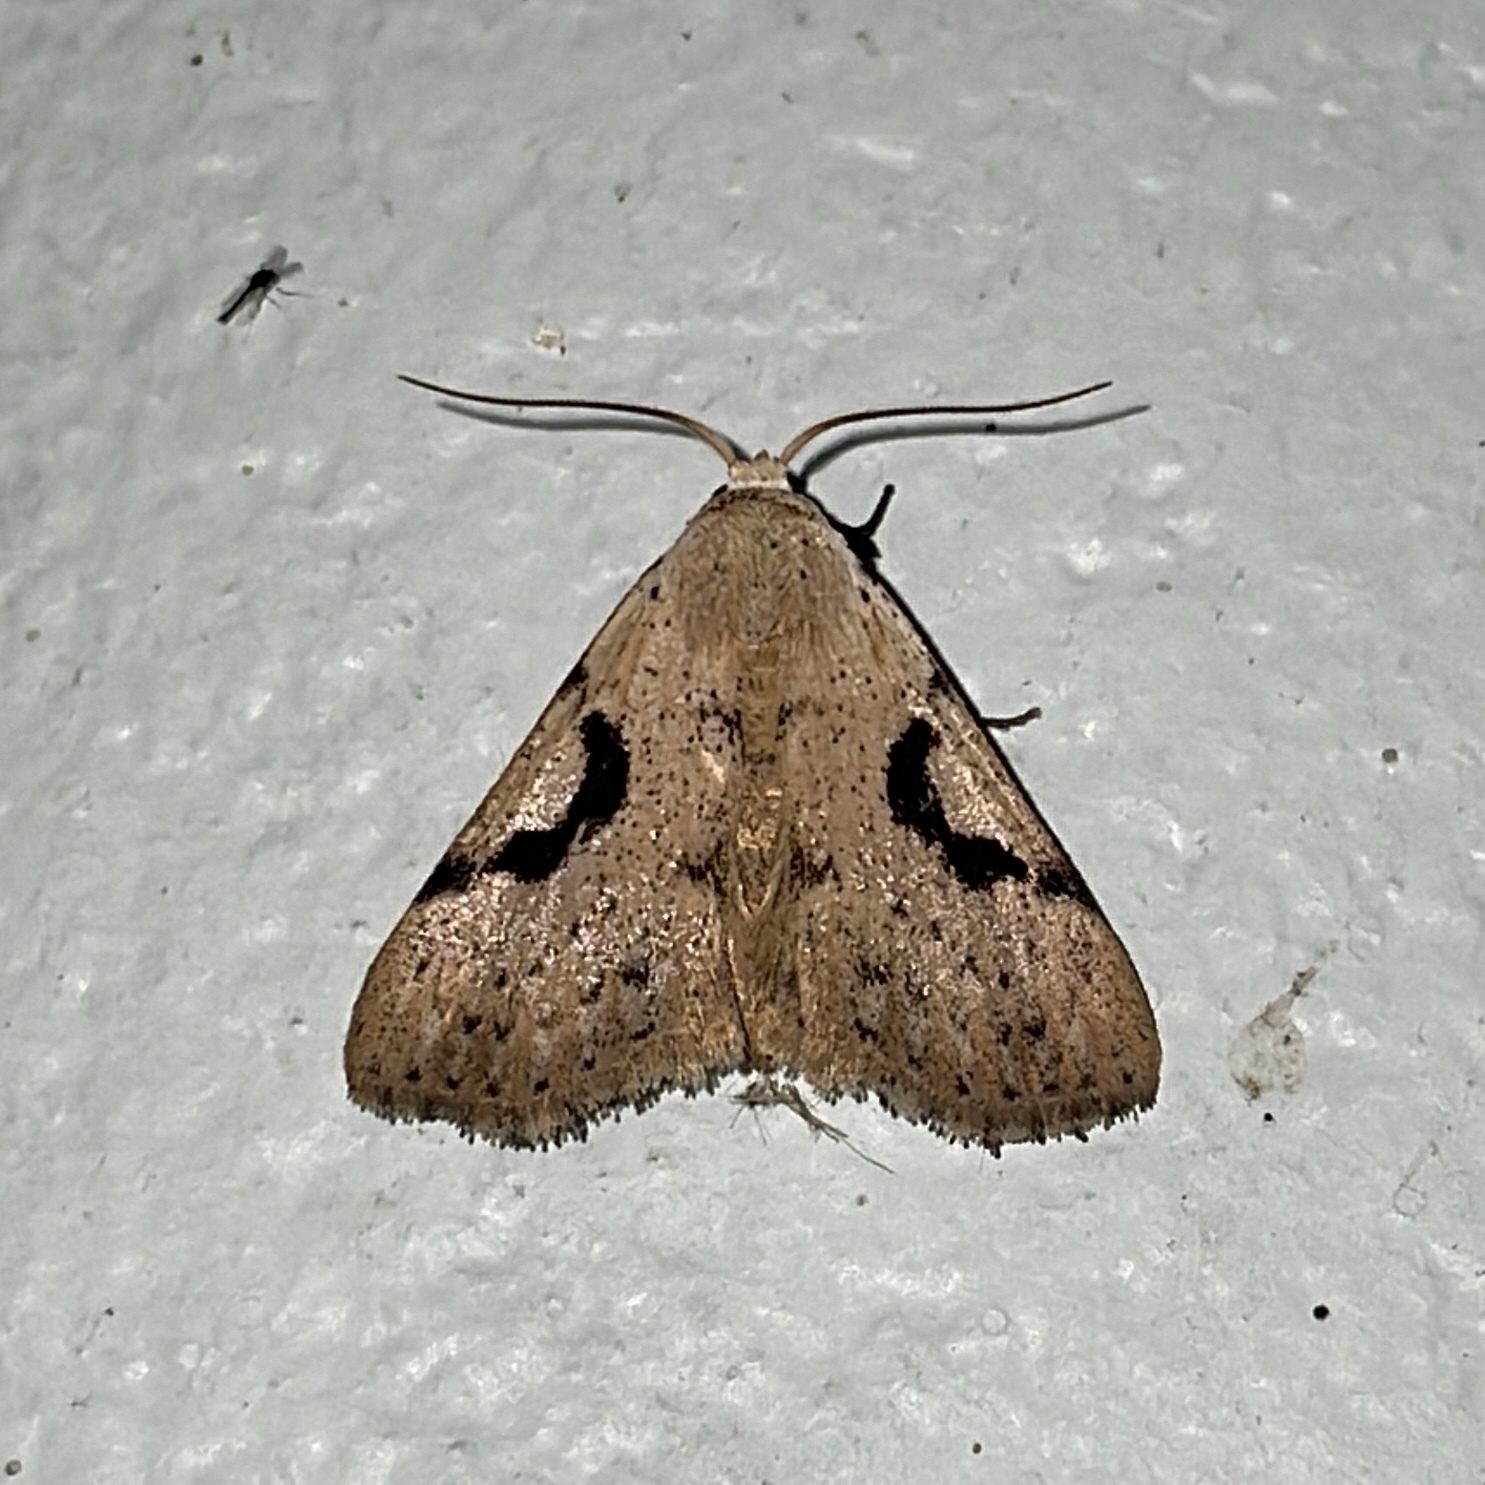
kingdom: Animalia
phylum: Arthropoda
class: Insecta
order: Lepidoptera
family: Erebidae
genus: Acanthermia
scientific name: Acanthermia concatenalis
